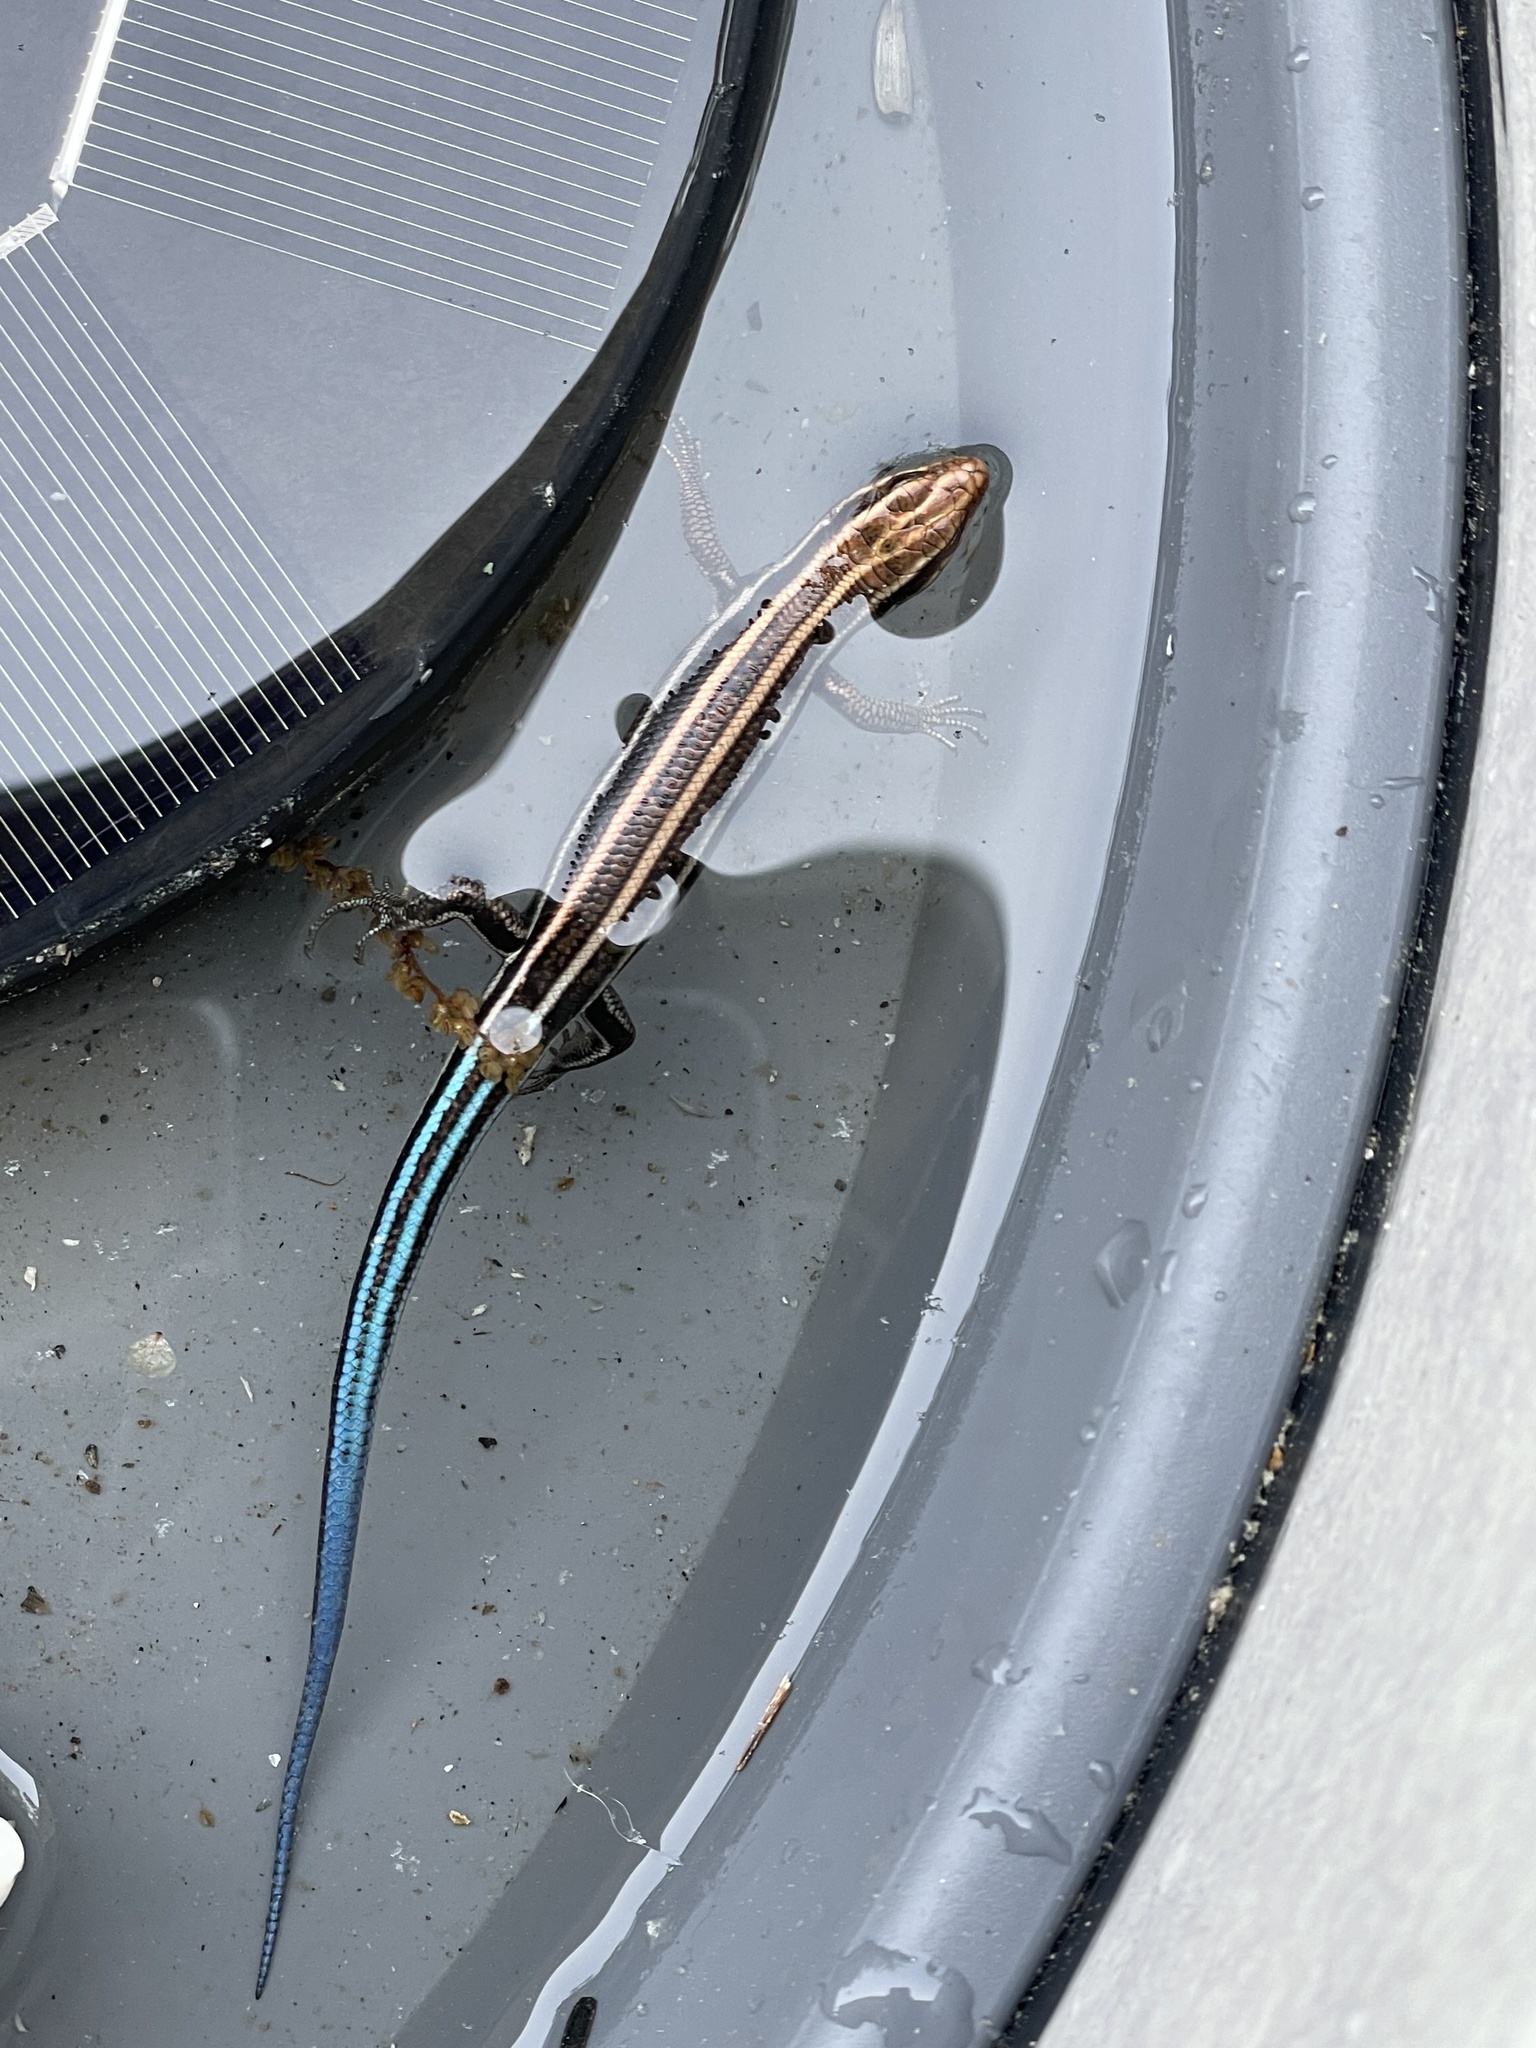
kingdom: Animalia
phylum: Chordata
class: Squamata
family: Scincidae
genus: Plestiodon
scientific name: Plestiodon fasciatus
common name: Five-lined skink
